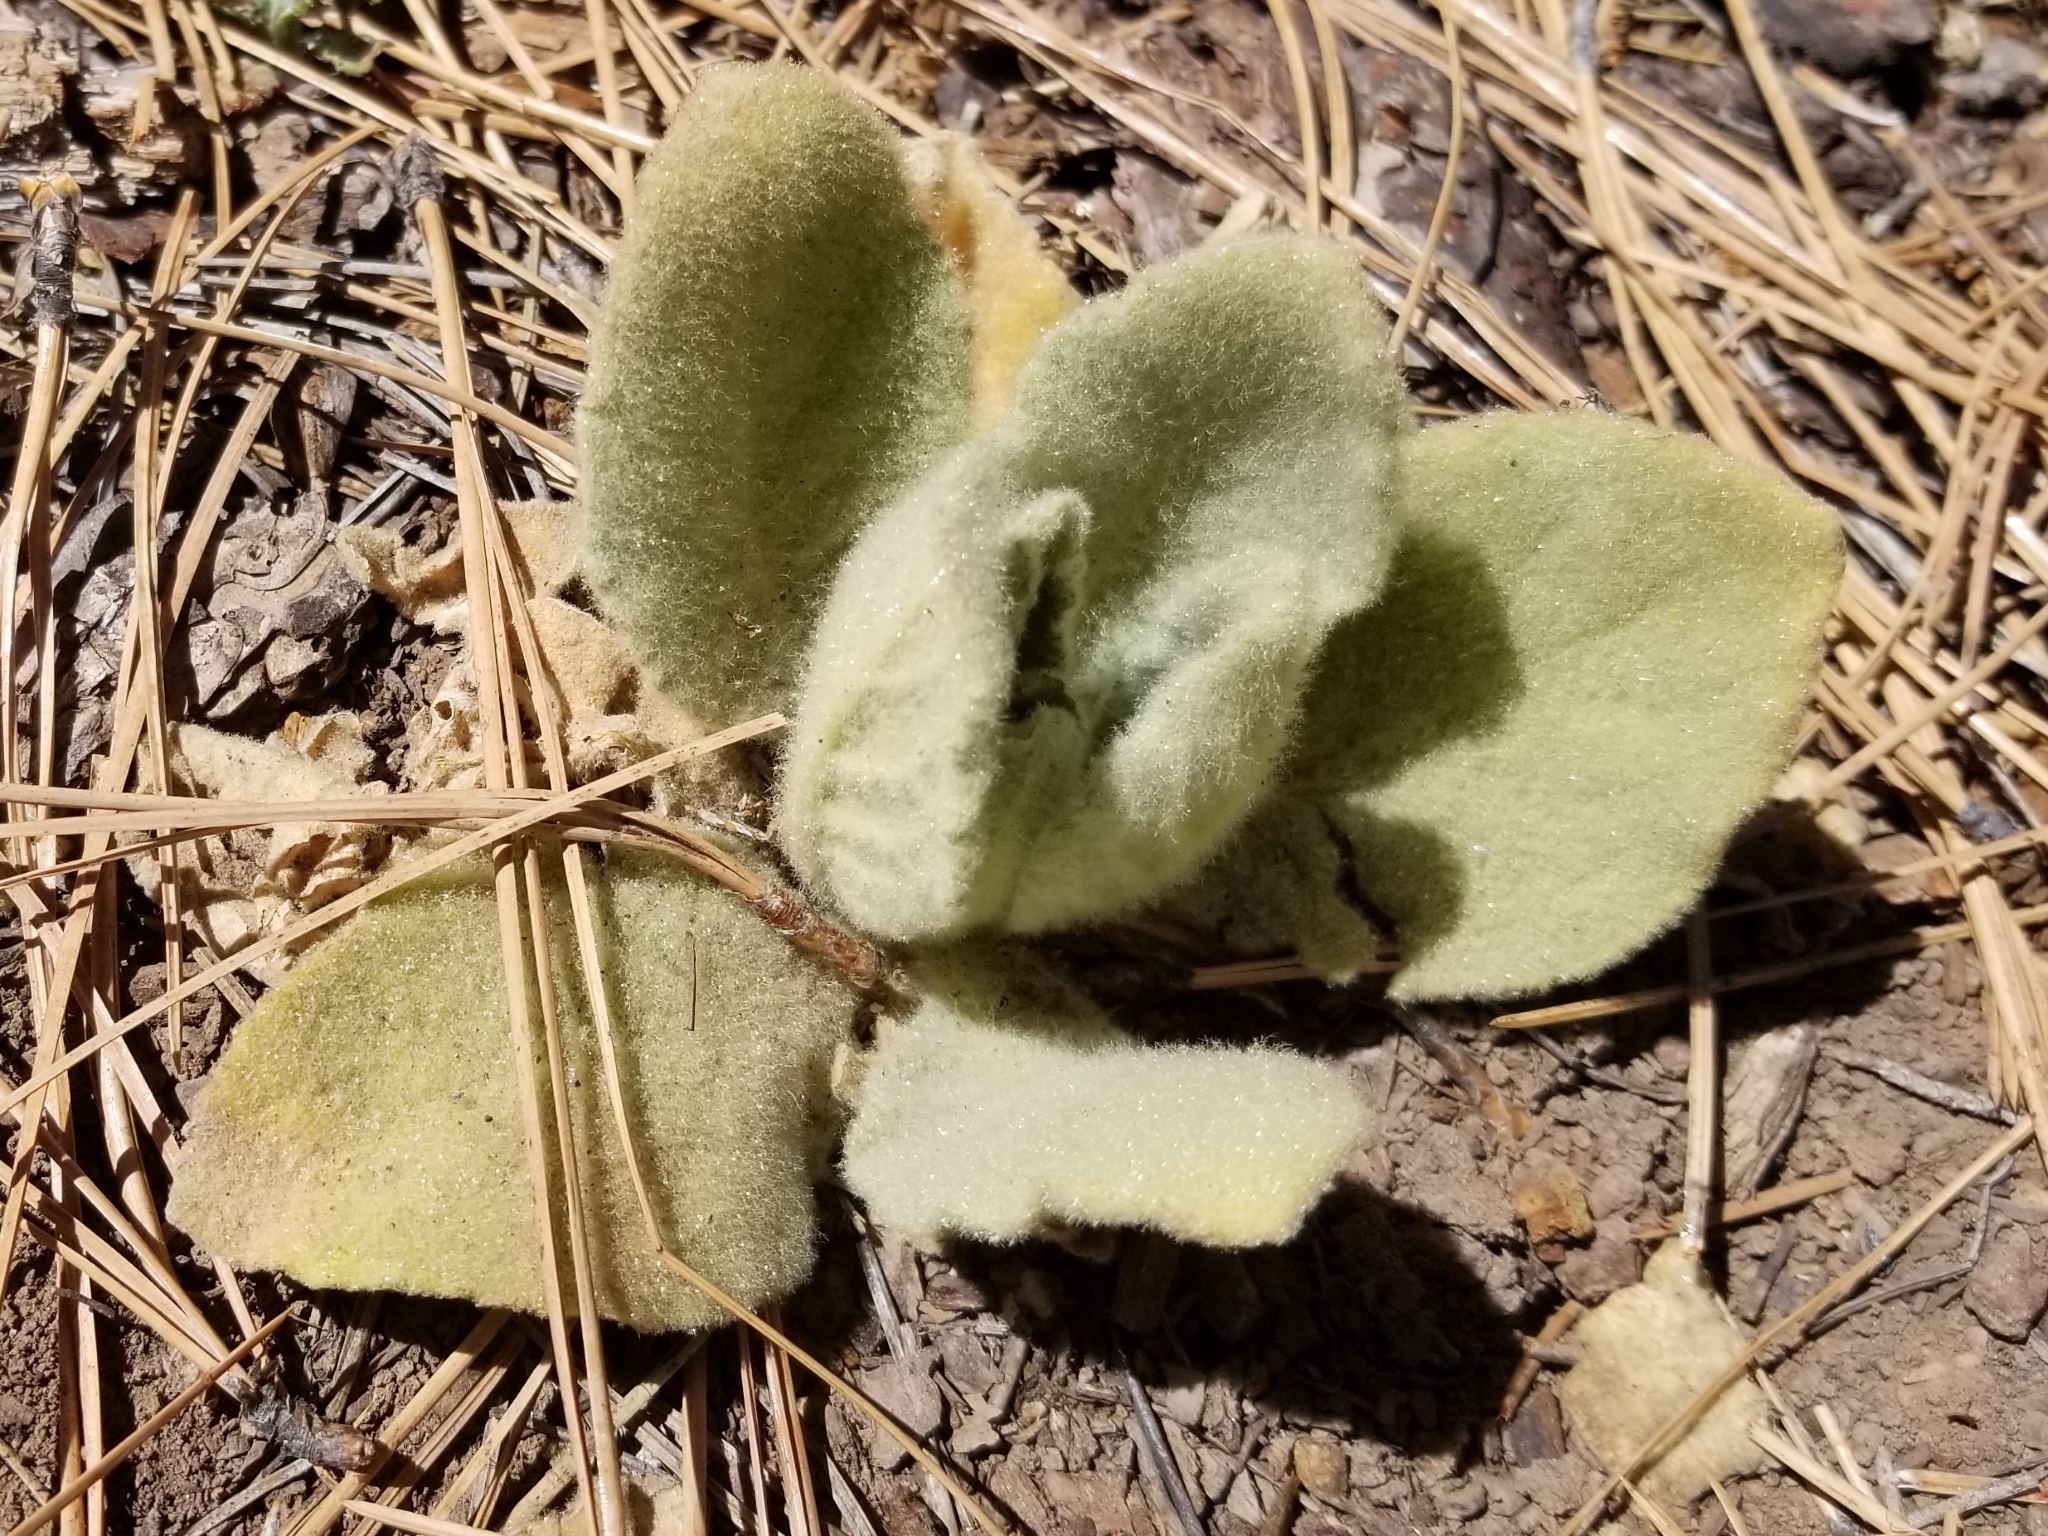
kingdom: Plantae
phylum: Tracheophyta
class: Magnoliopsida
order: Lamiales
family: Scrophulariaceae
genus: Verbascum
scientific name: Verbascum thapsus
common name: Common mullein
